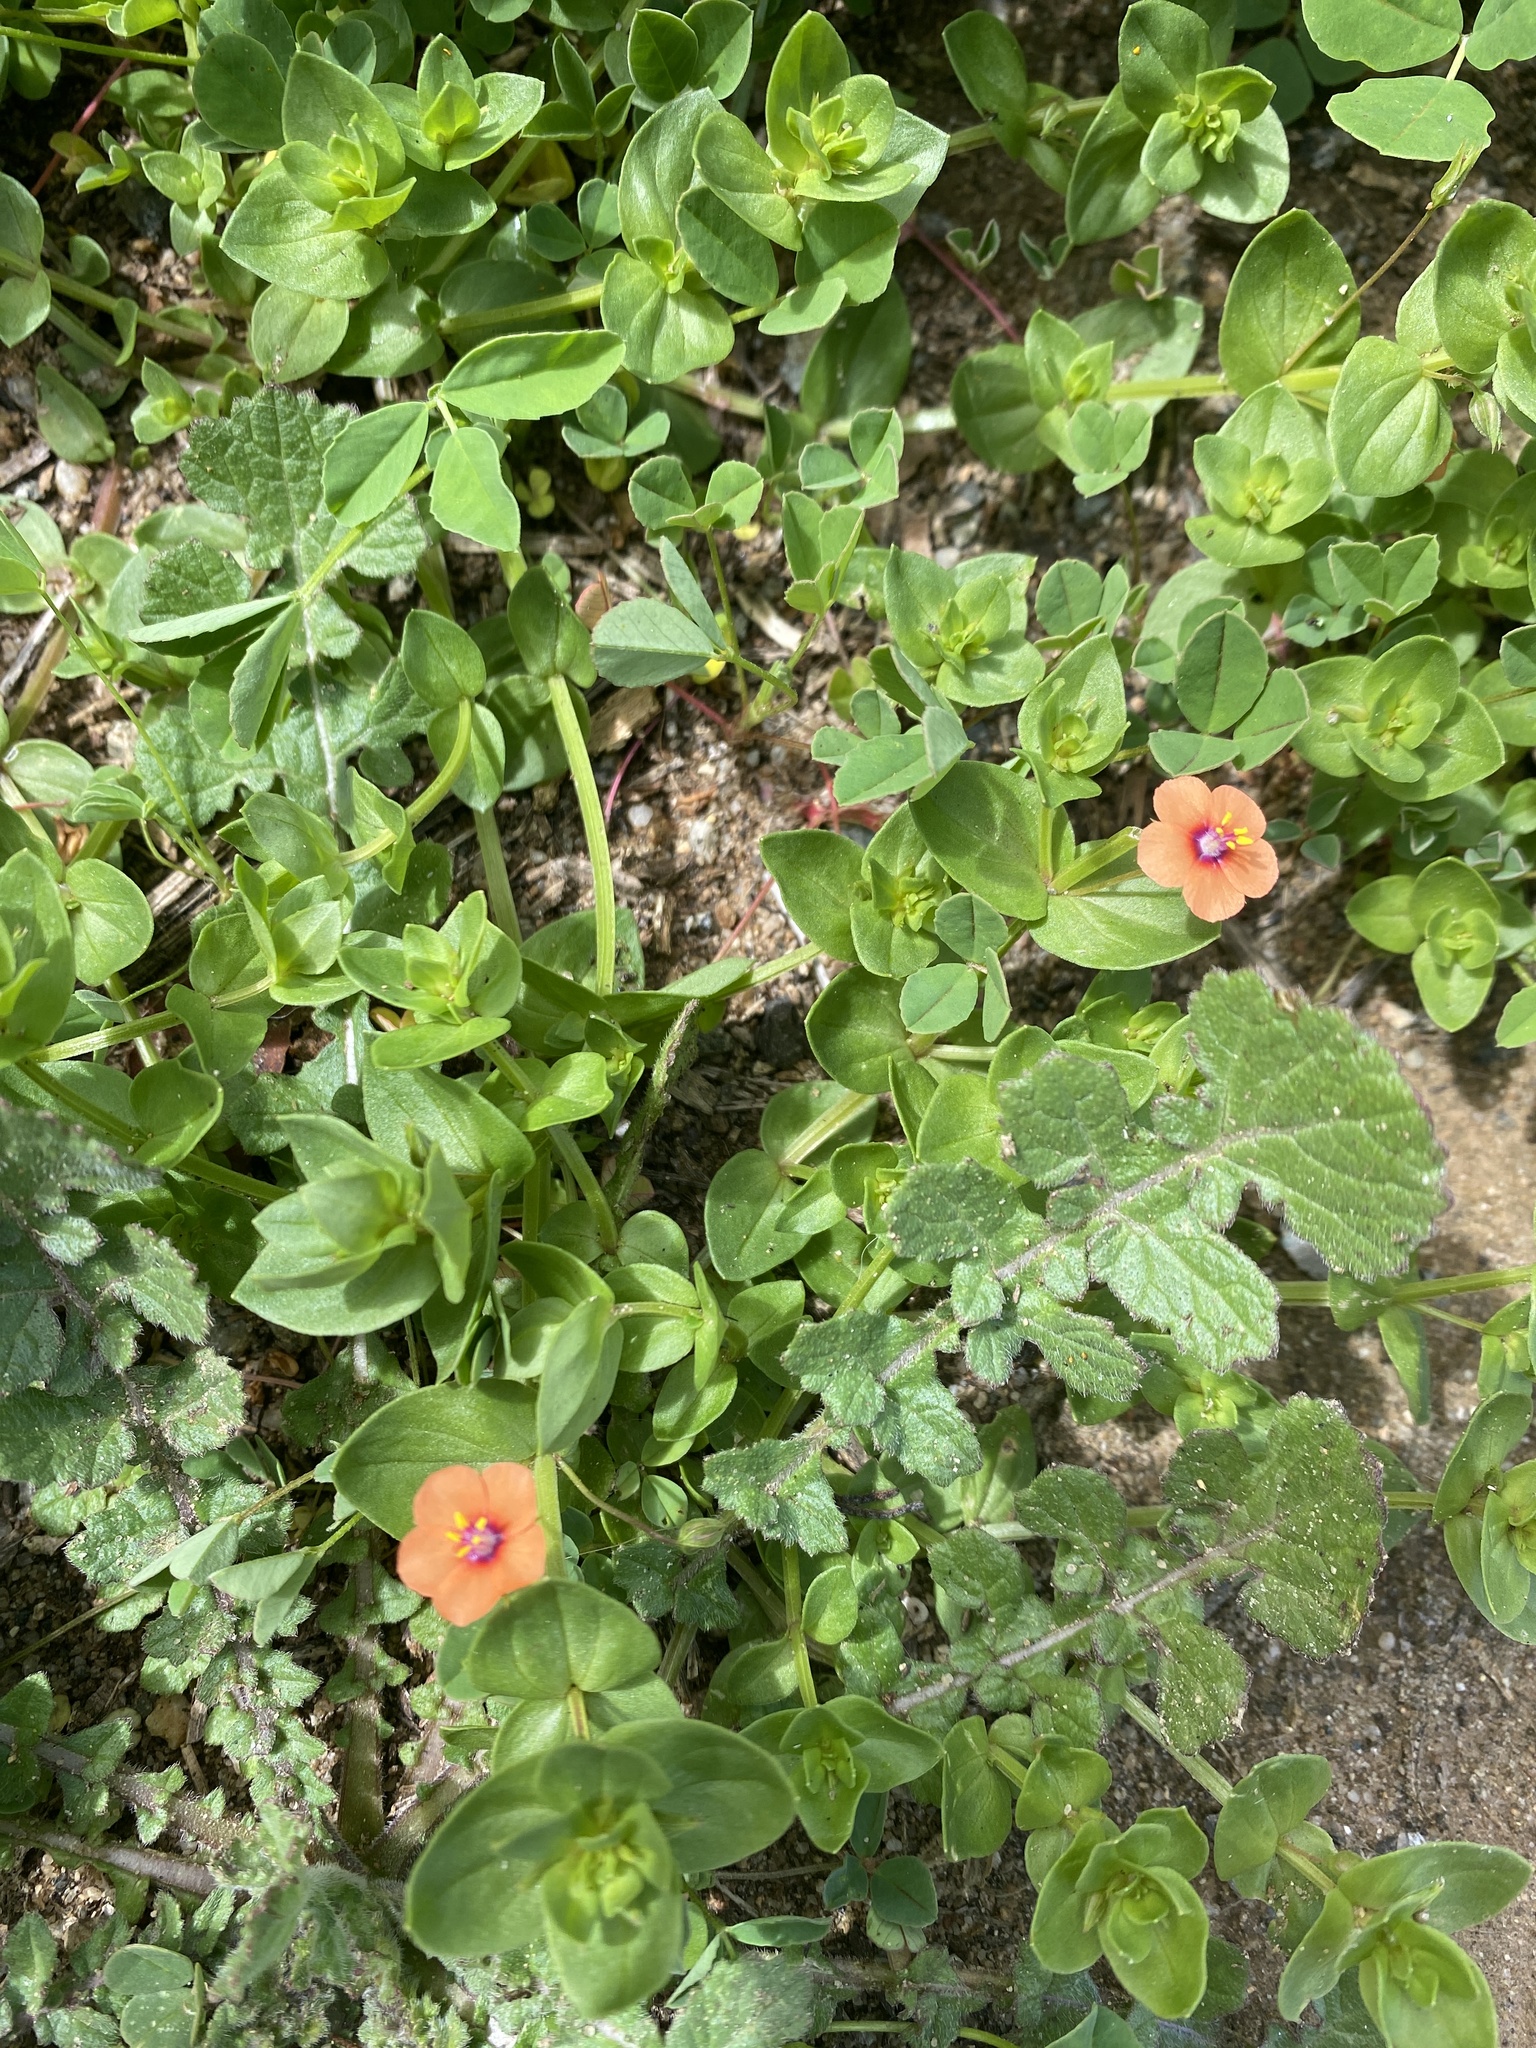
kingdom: Plantae
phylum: Tracheophyta
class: Magnoliopsida
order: Ericales
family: Primulaceae
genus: Lysimachia
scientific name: Lysimachia arvensis
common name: Scarlet pimpernel
